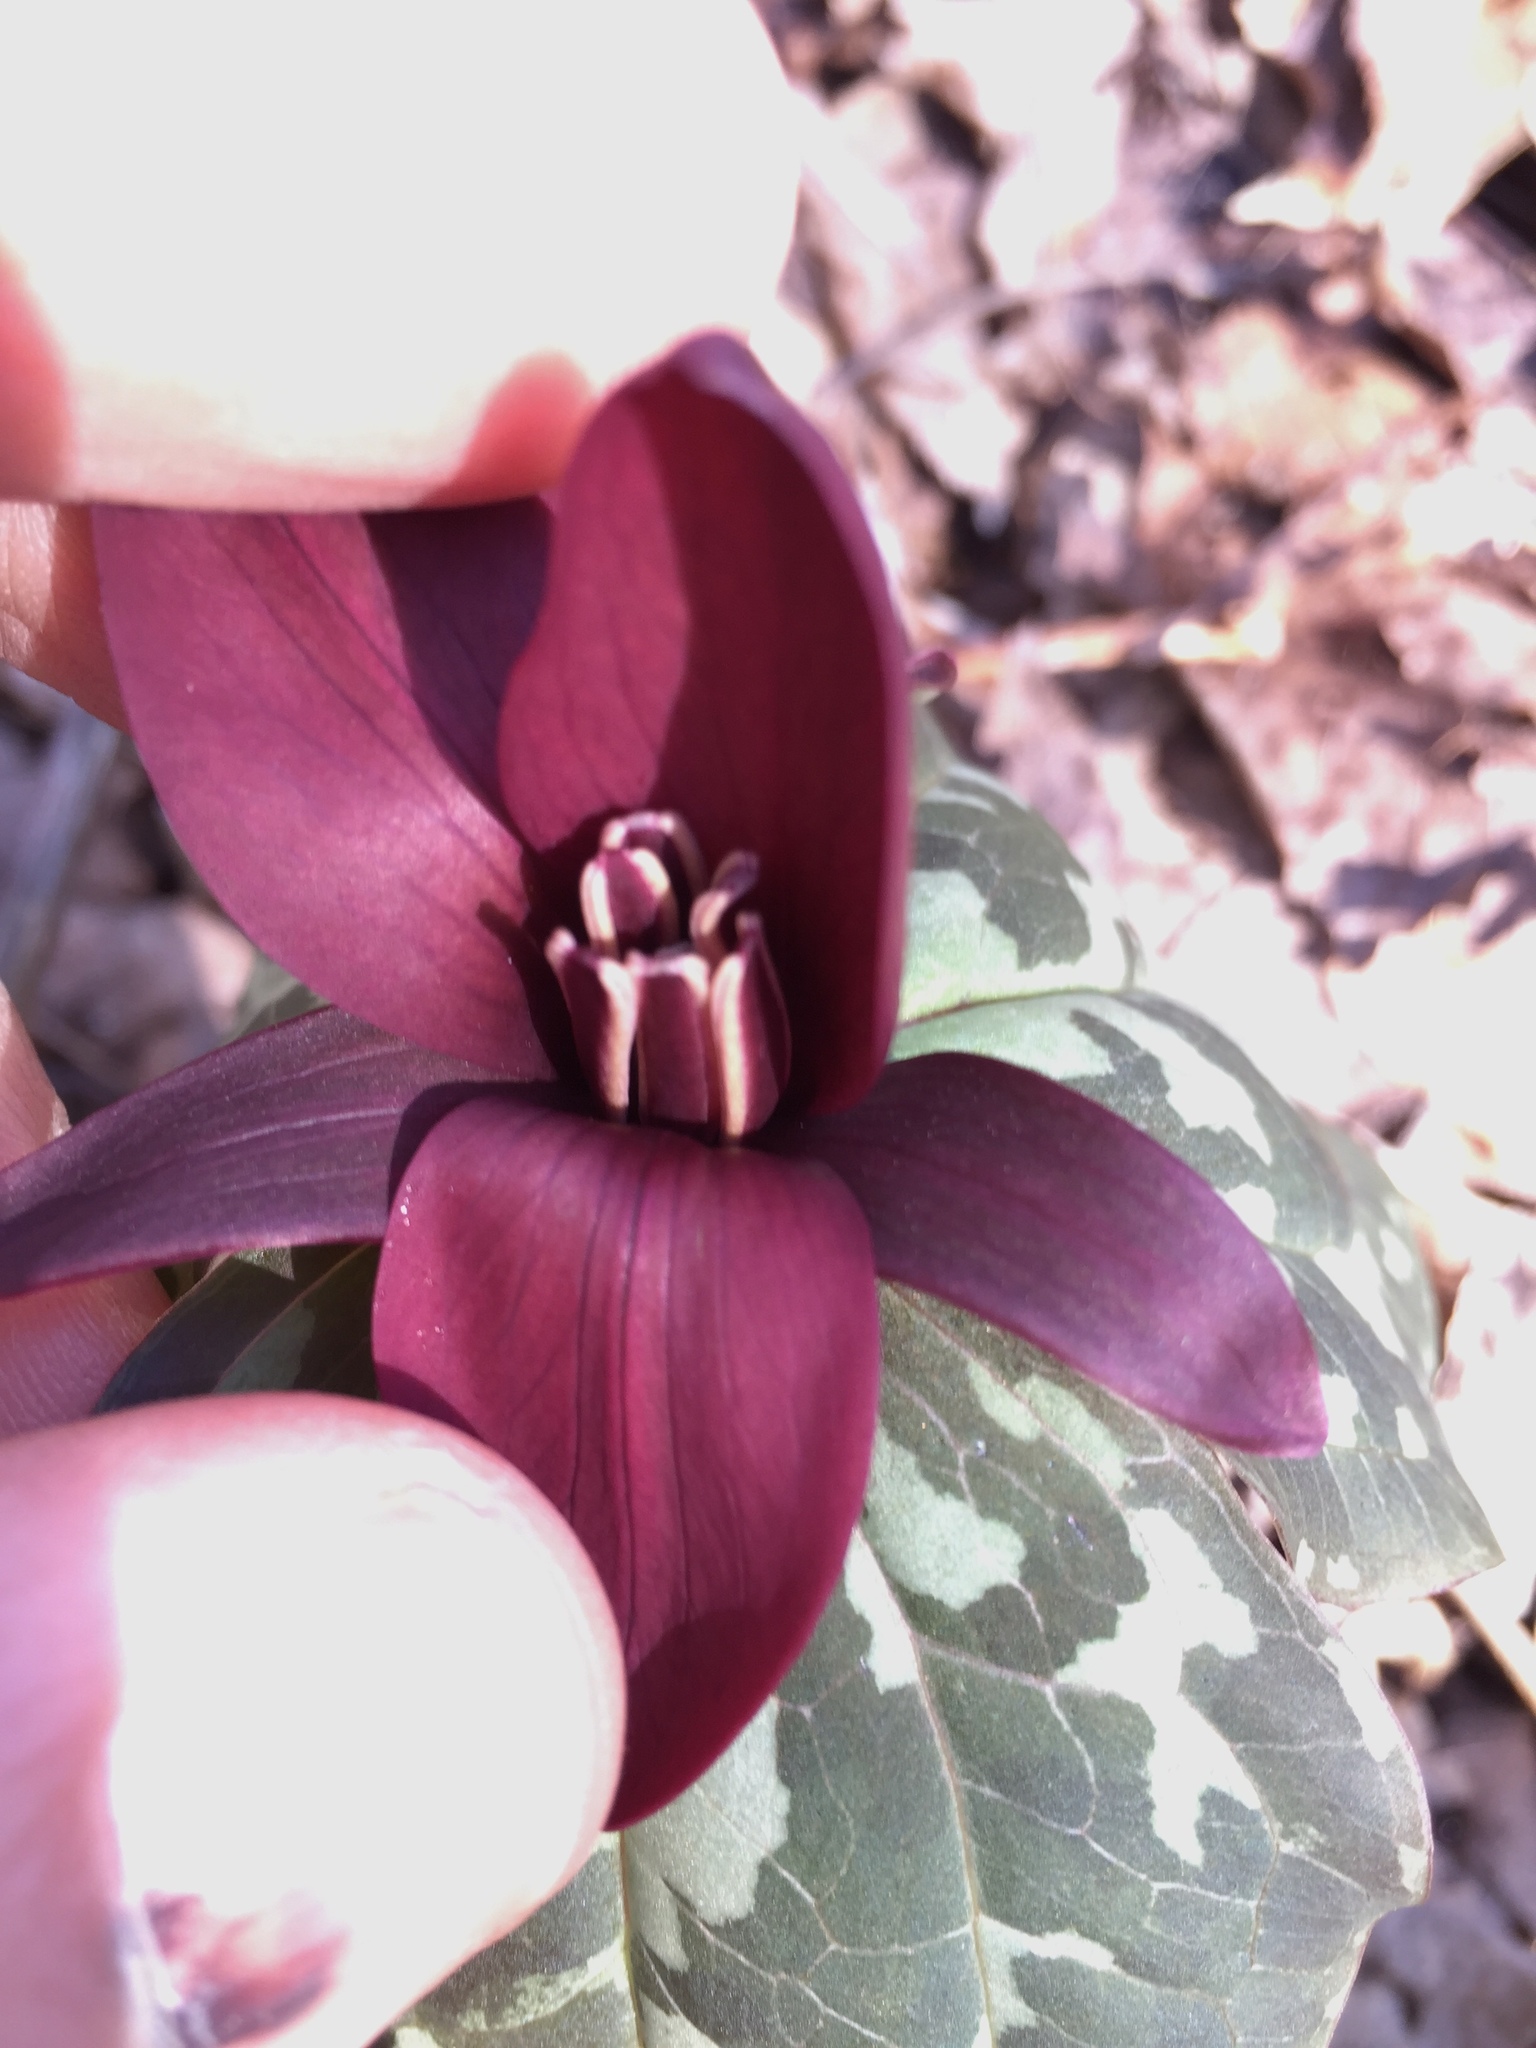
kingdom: Plantae
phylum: Tracheophyta
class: Liliopsida
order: Liliales
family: Melanthiaceae
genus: Trillium
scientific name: Trillium cuneatum
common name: Cuneate trillium
